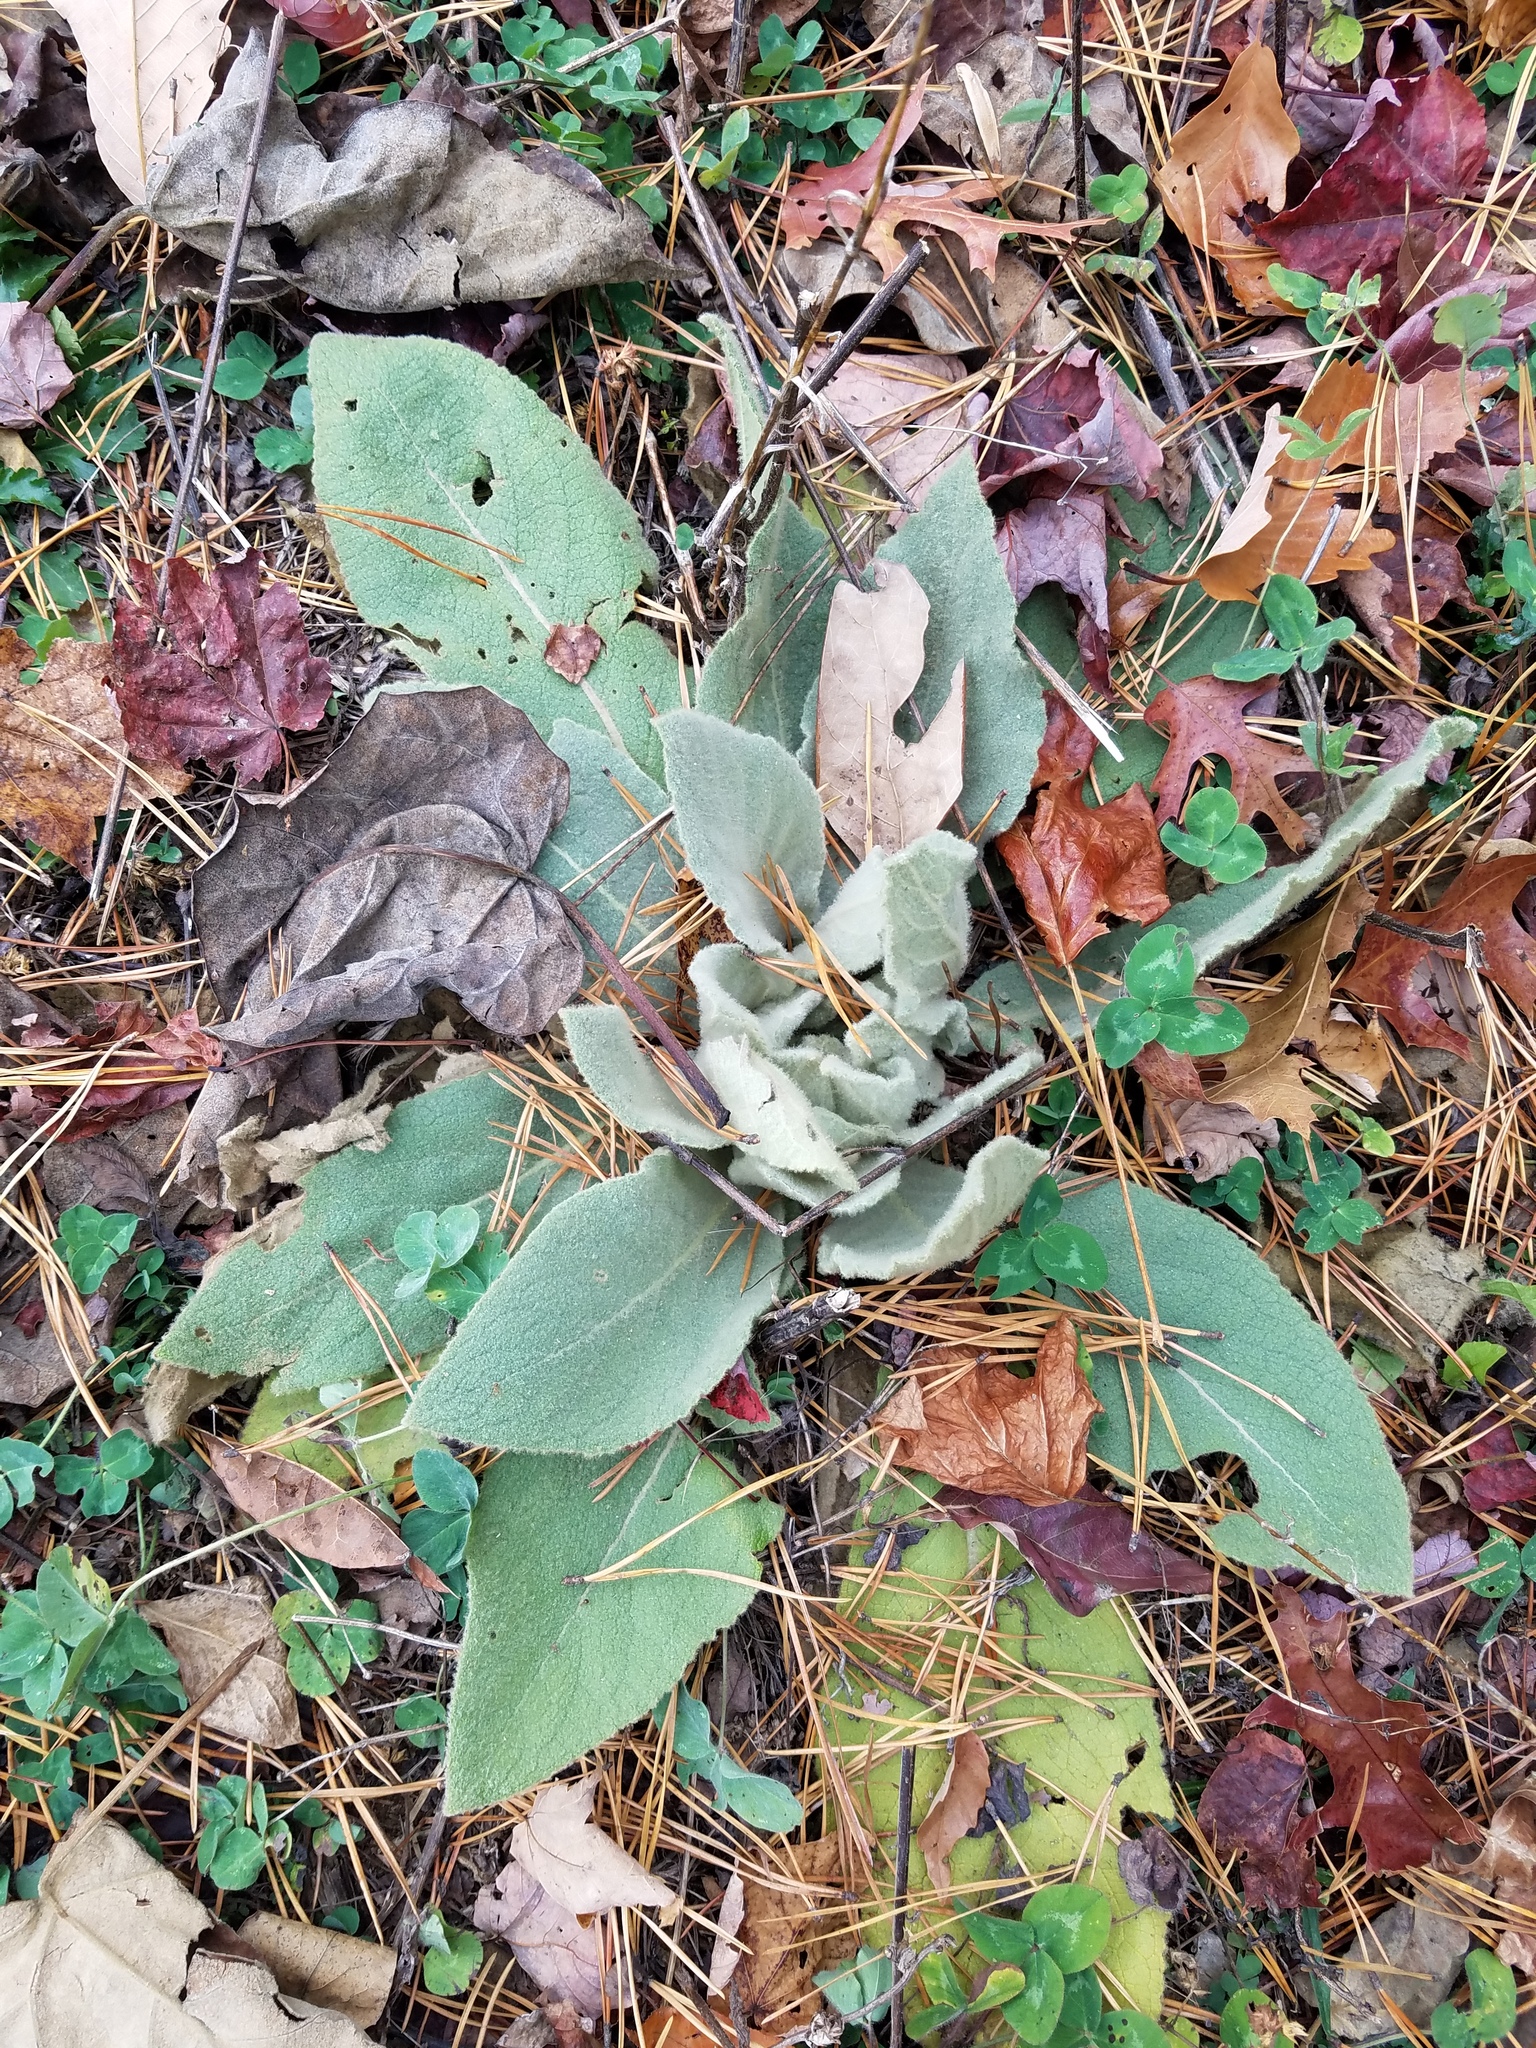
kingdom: Plantae
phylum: Tracheophyta
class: Magnoliopsida
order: Lamiales
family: Scrophulariaceae
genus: Verbascum
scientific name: Verbascum thapsus
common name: Common mullein
